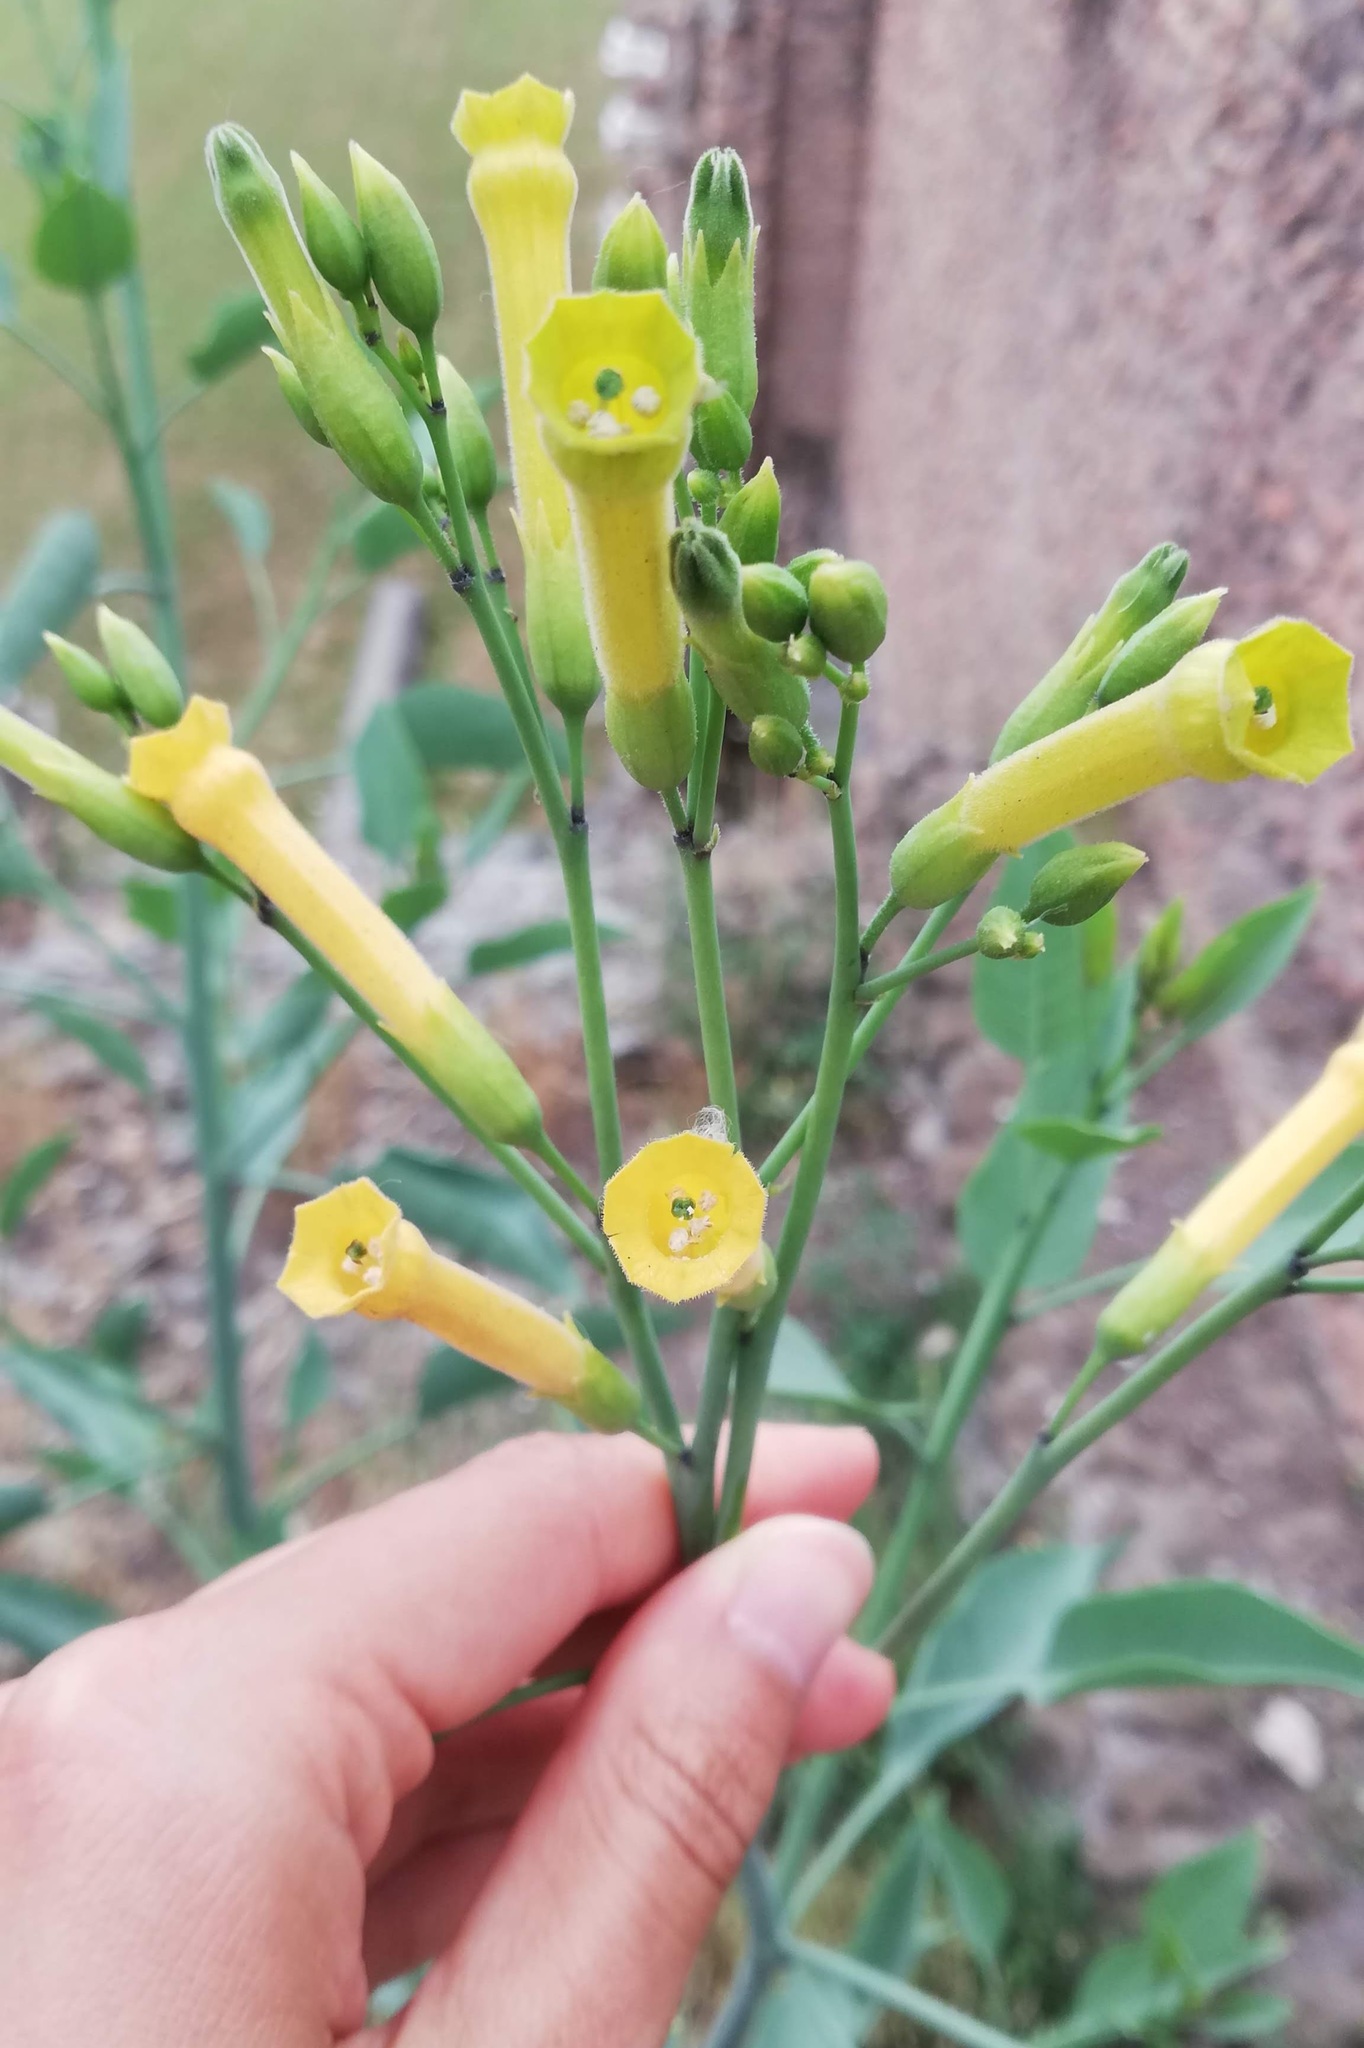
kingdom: Plantae
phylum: Tracheophyta
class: Magnoliopsida
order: Solanales
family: Solanaceae
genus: Nicotiana
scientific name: Nicotiana glauca
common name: Tree tobacco
